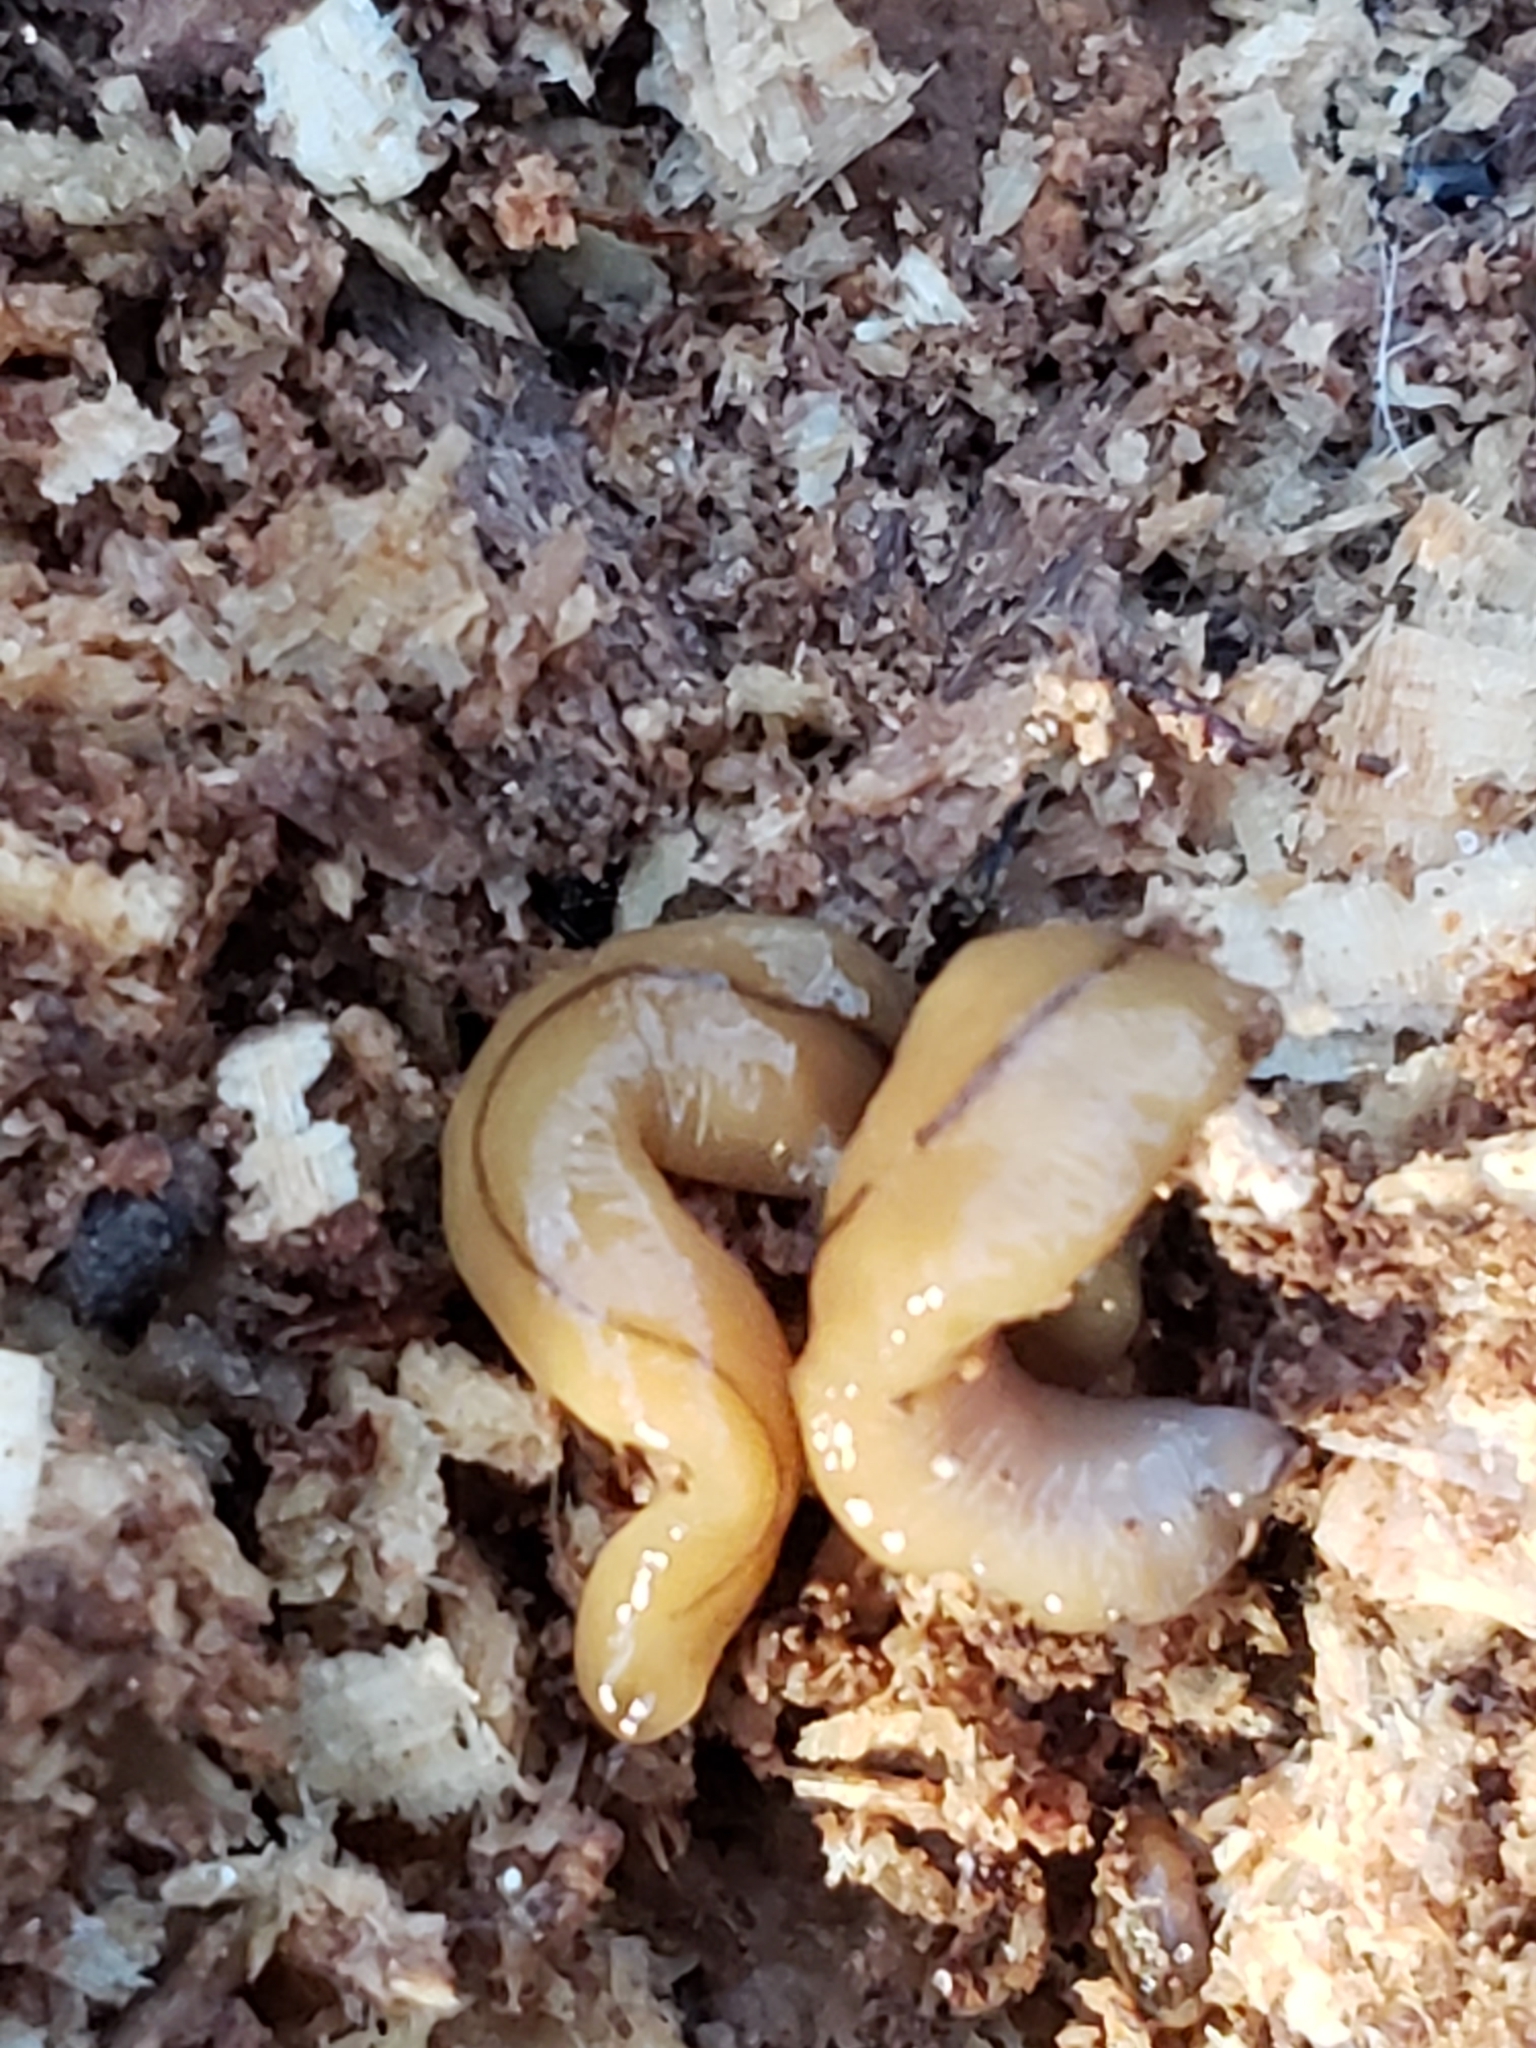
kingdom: Animalia
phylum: Platyhelminthes
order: Tricladida
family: Geoplanidae
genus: Bipalium
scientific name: Bipalium adventitium
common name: Land planarian
